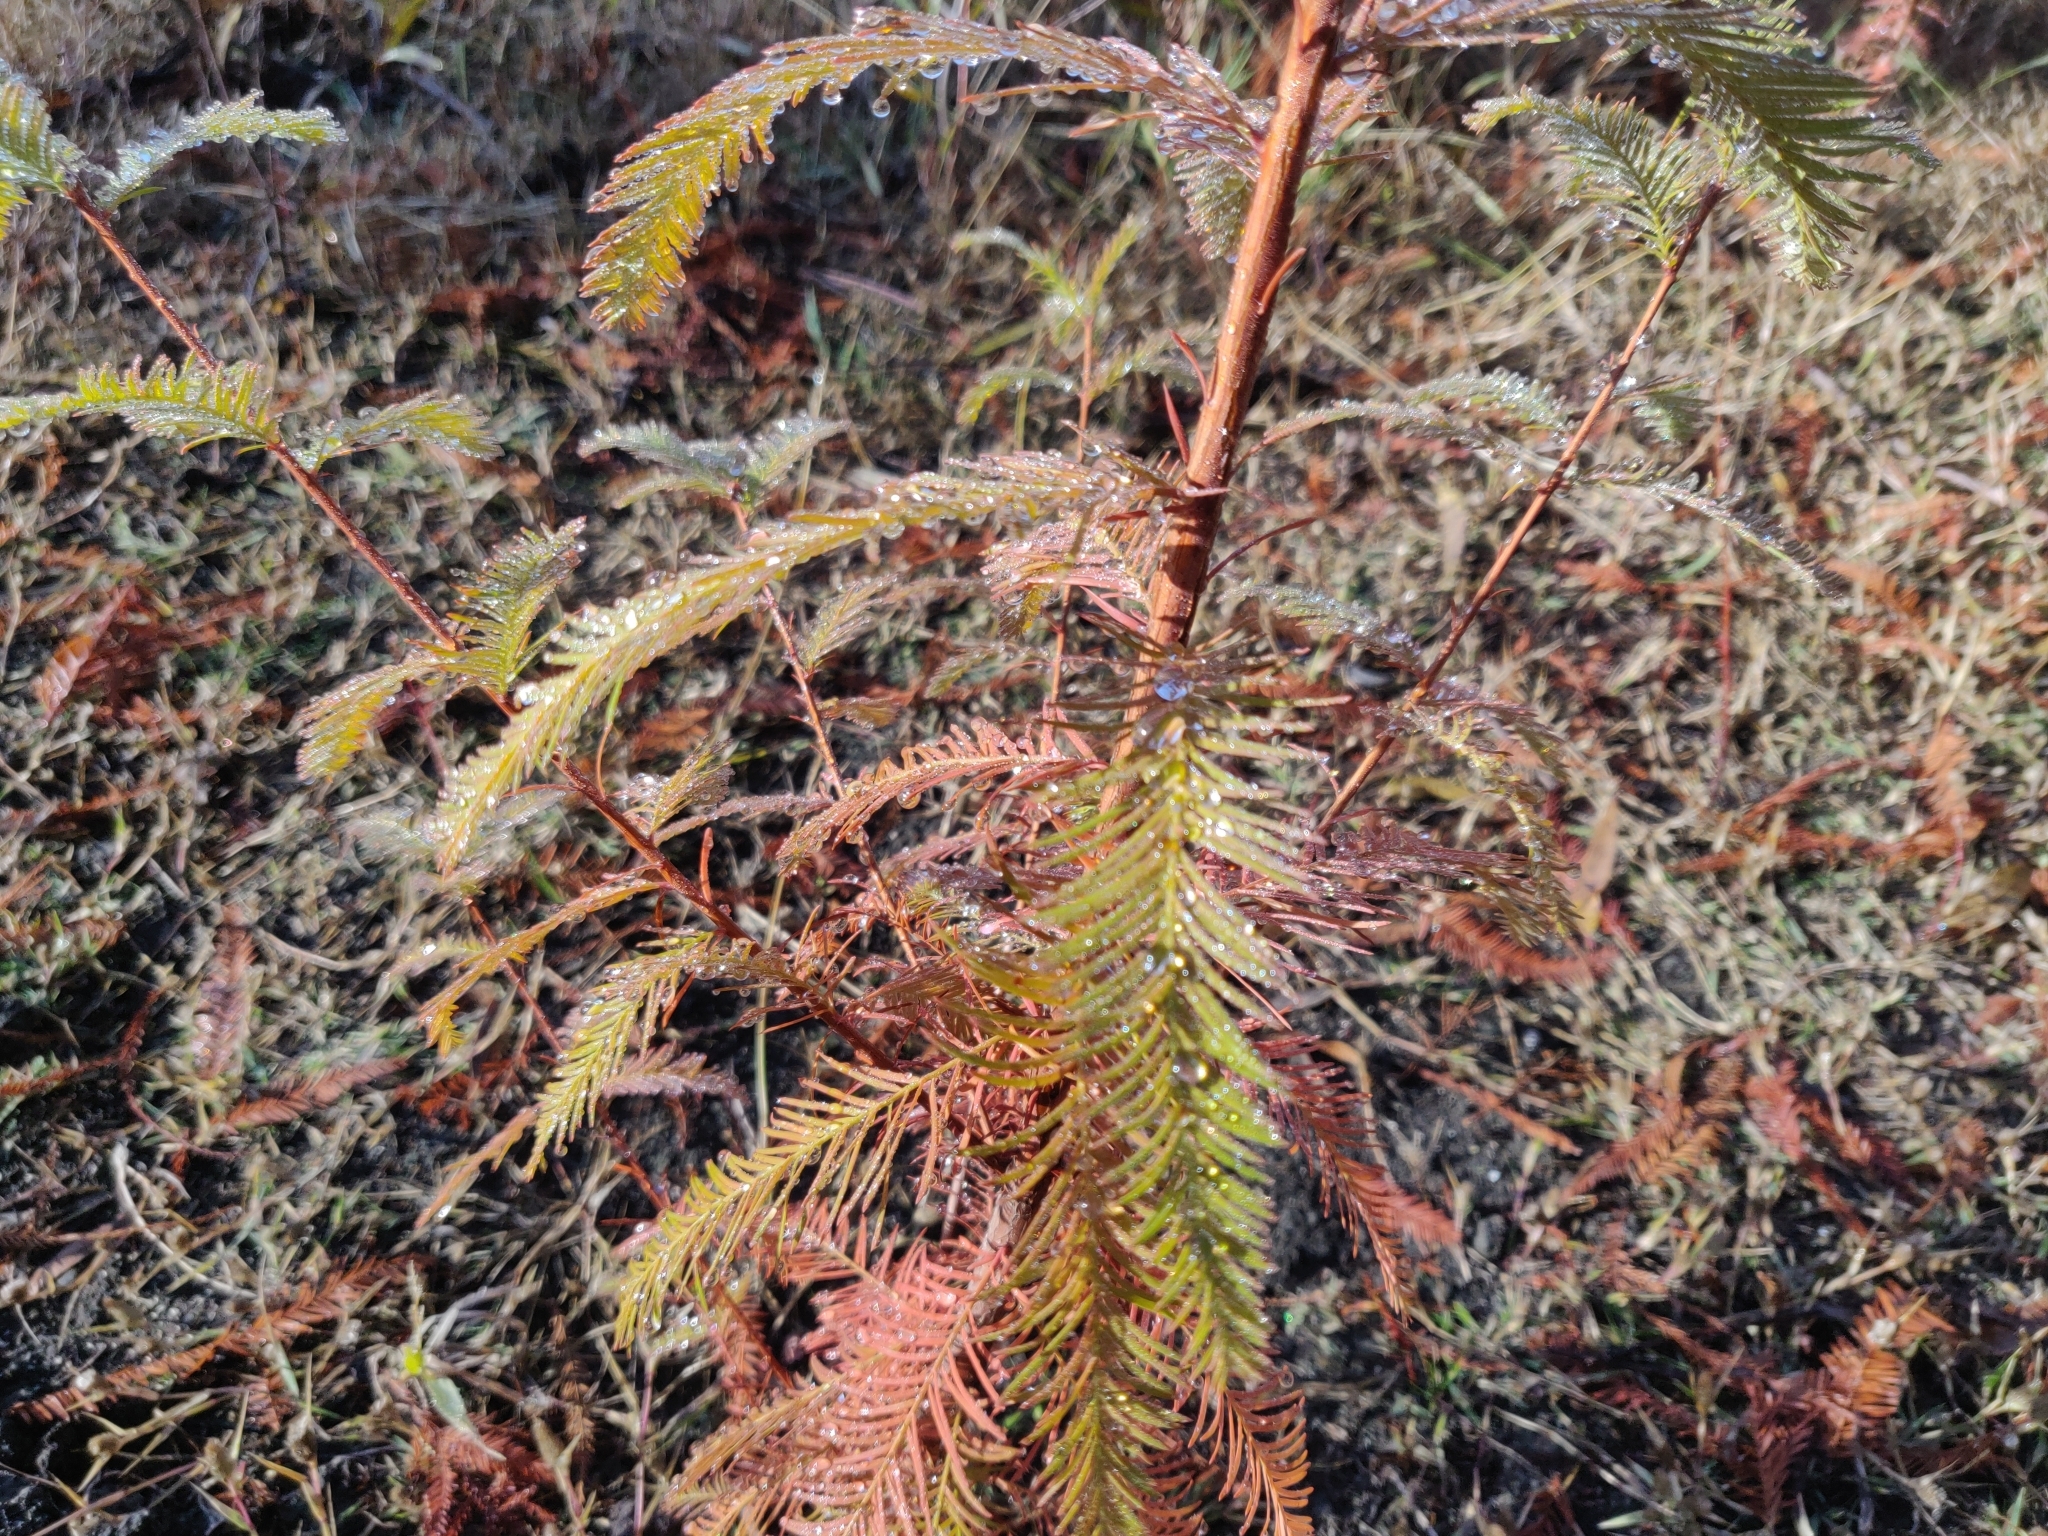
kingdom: Plantae
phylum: Tracheophyta
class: Pinopsida
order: Pinales
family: Cupressaceae
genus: Taxodium
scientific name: Taxodium distichum
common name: Bald cypress
